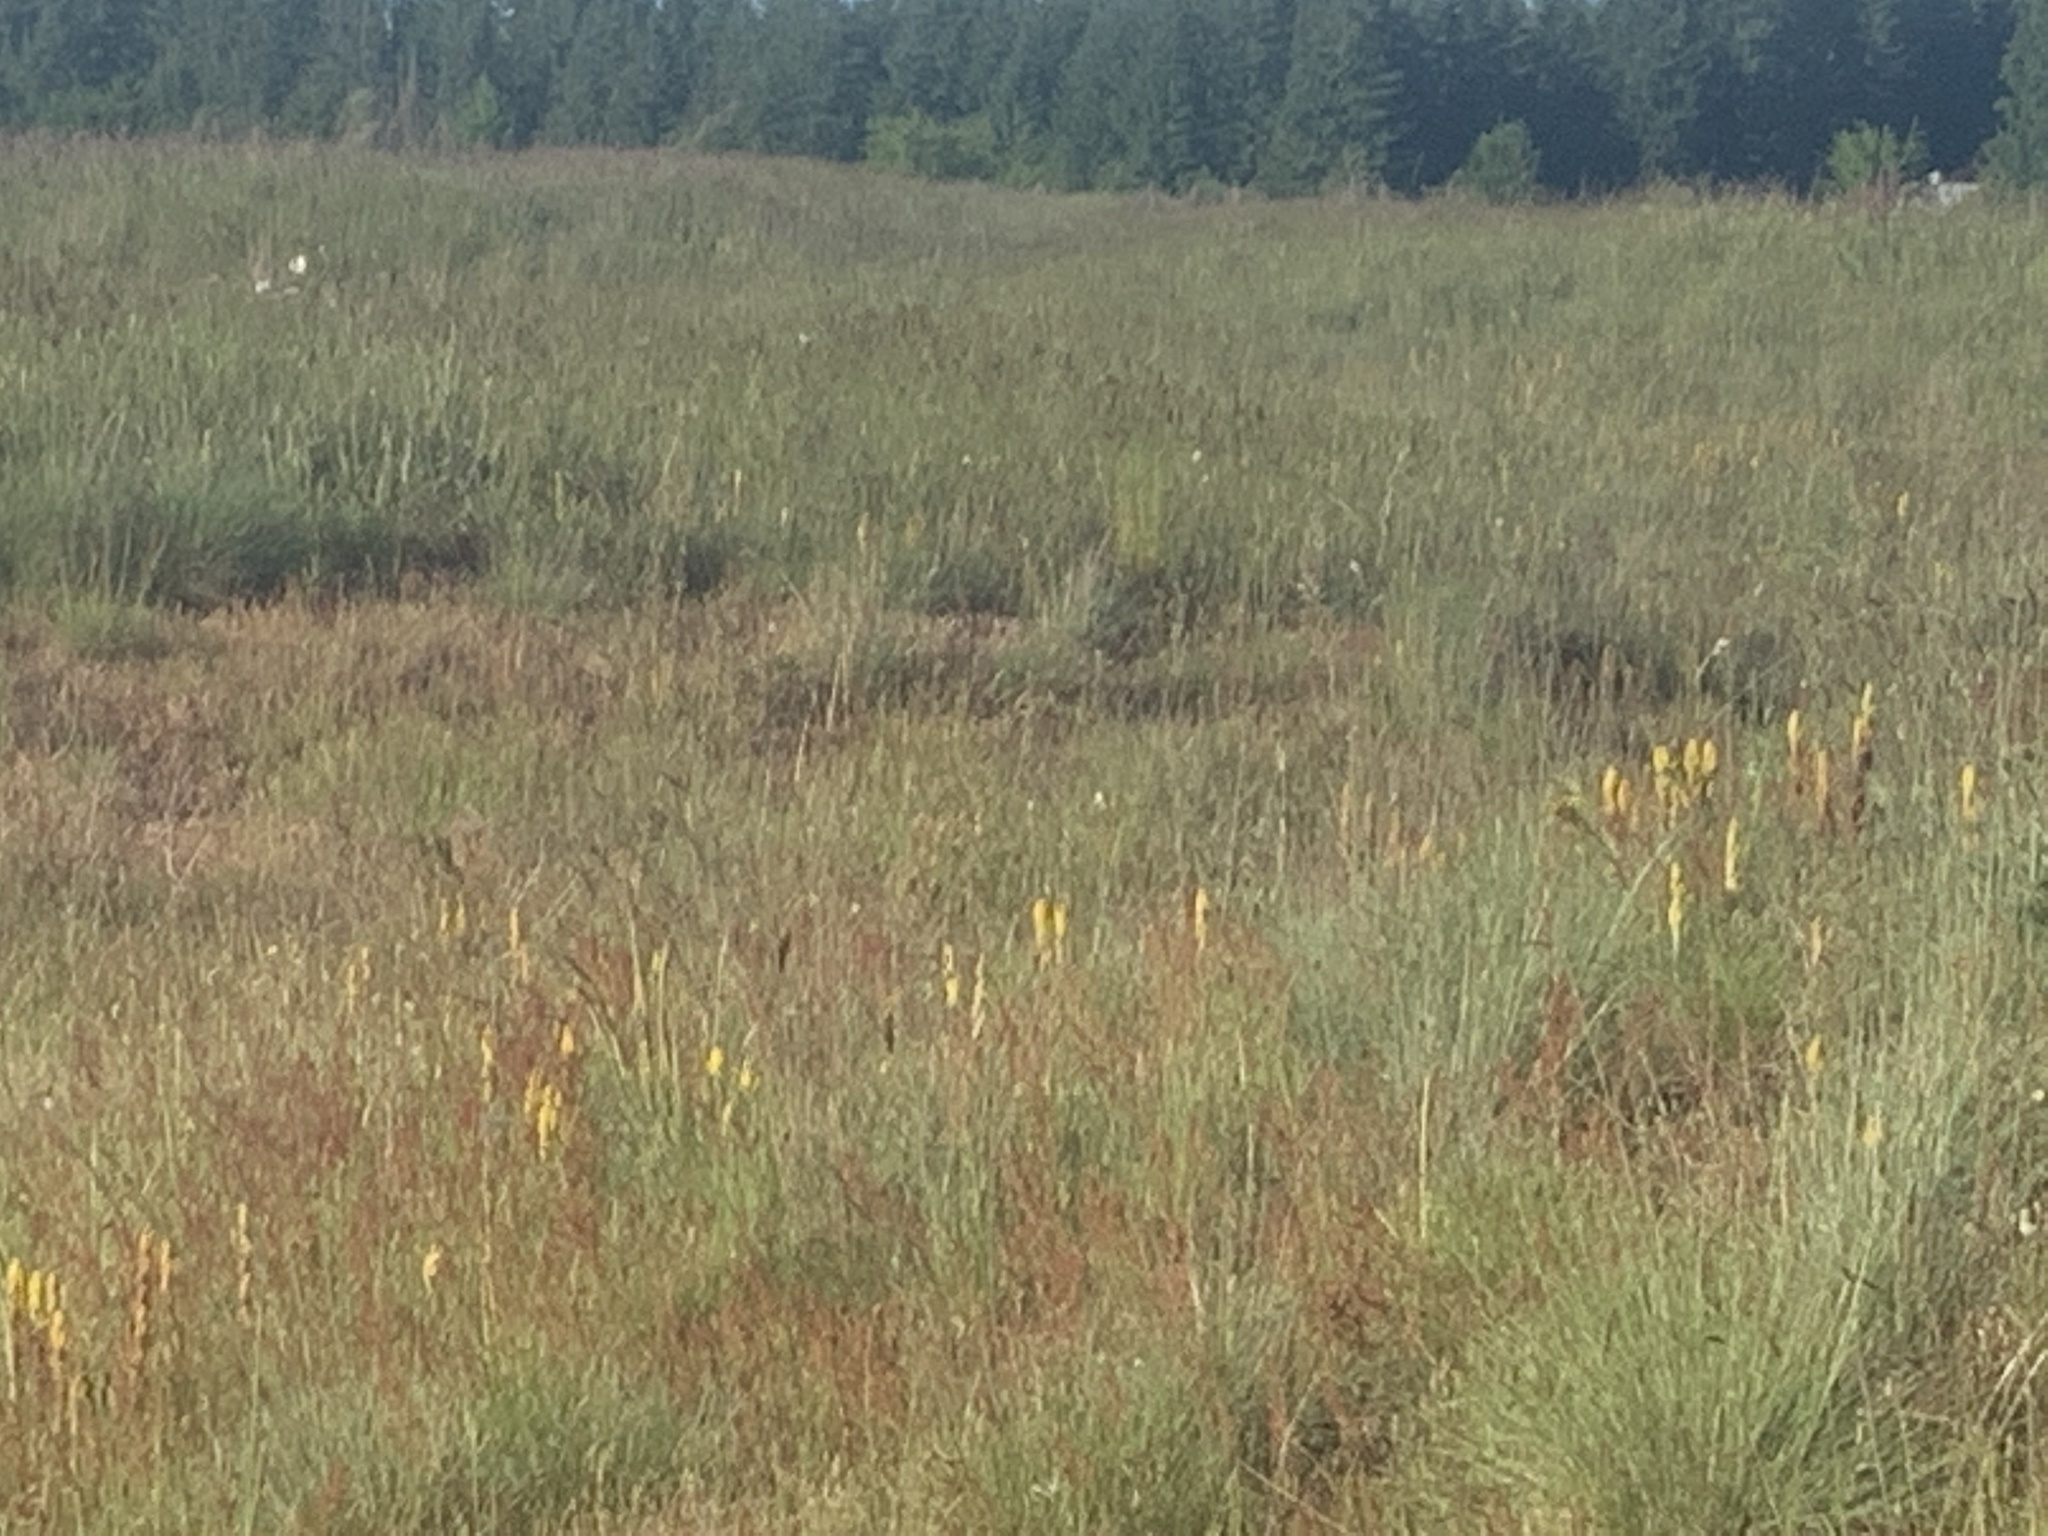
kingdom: Plantae
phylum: Tracheophyta
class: Magnoliopsida
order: Lamiales
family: Orobanchaceae
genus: Castilleja
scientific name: Castilleja levisecta
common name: Golden paintbrush
